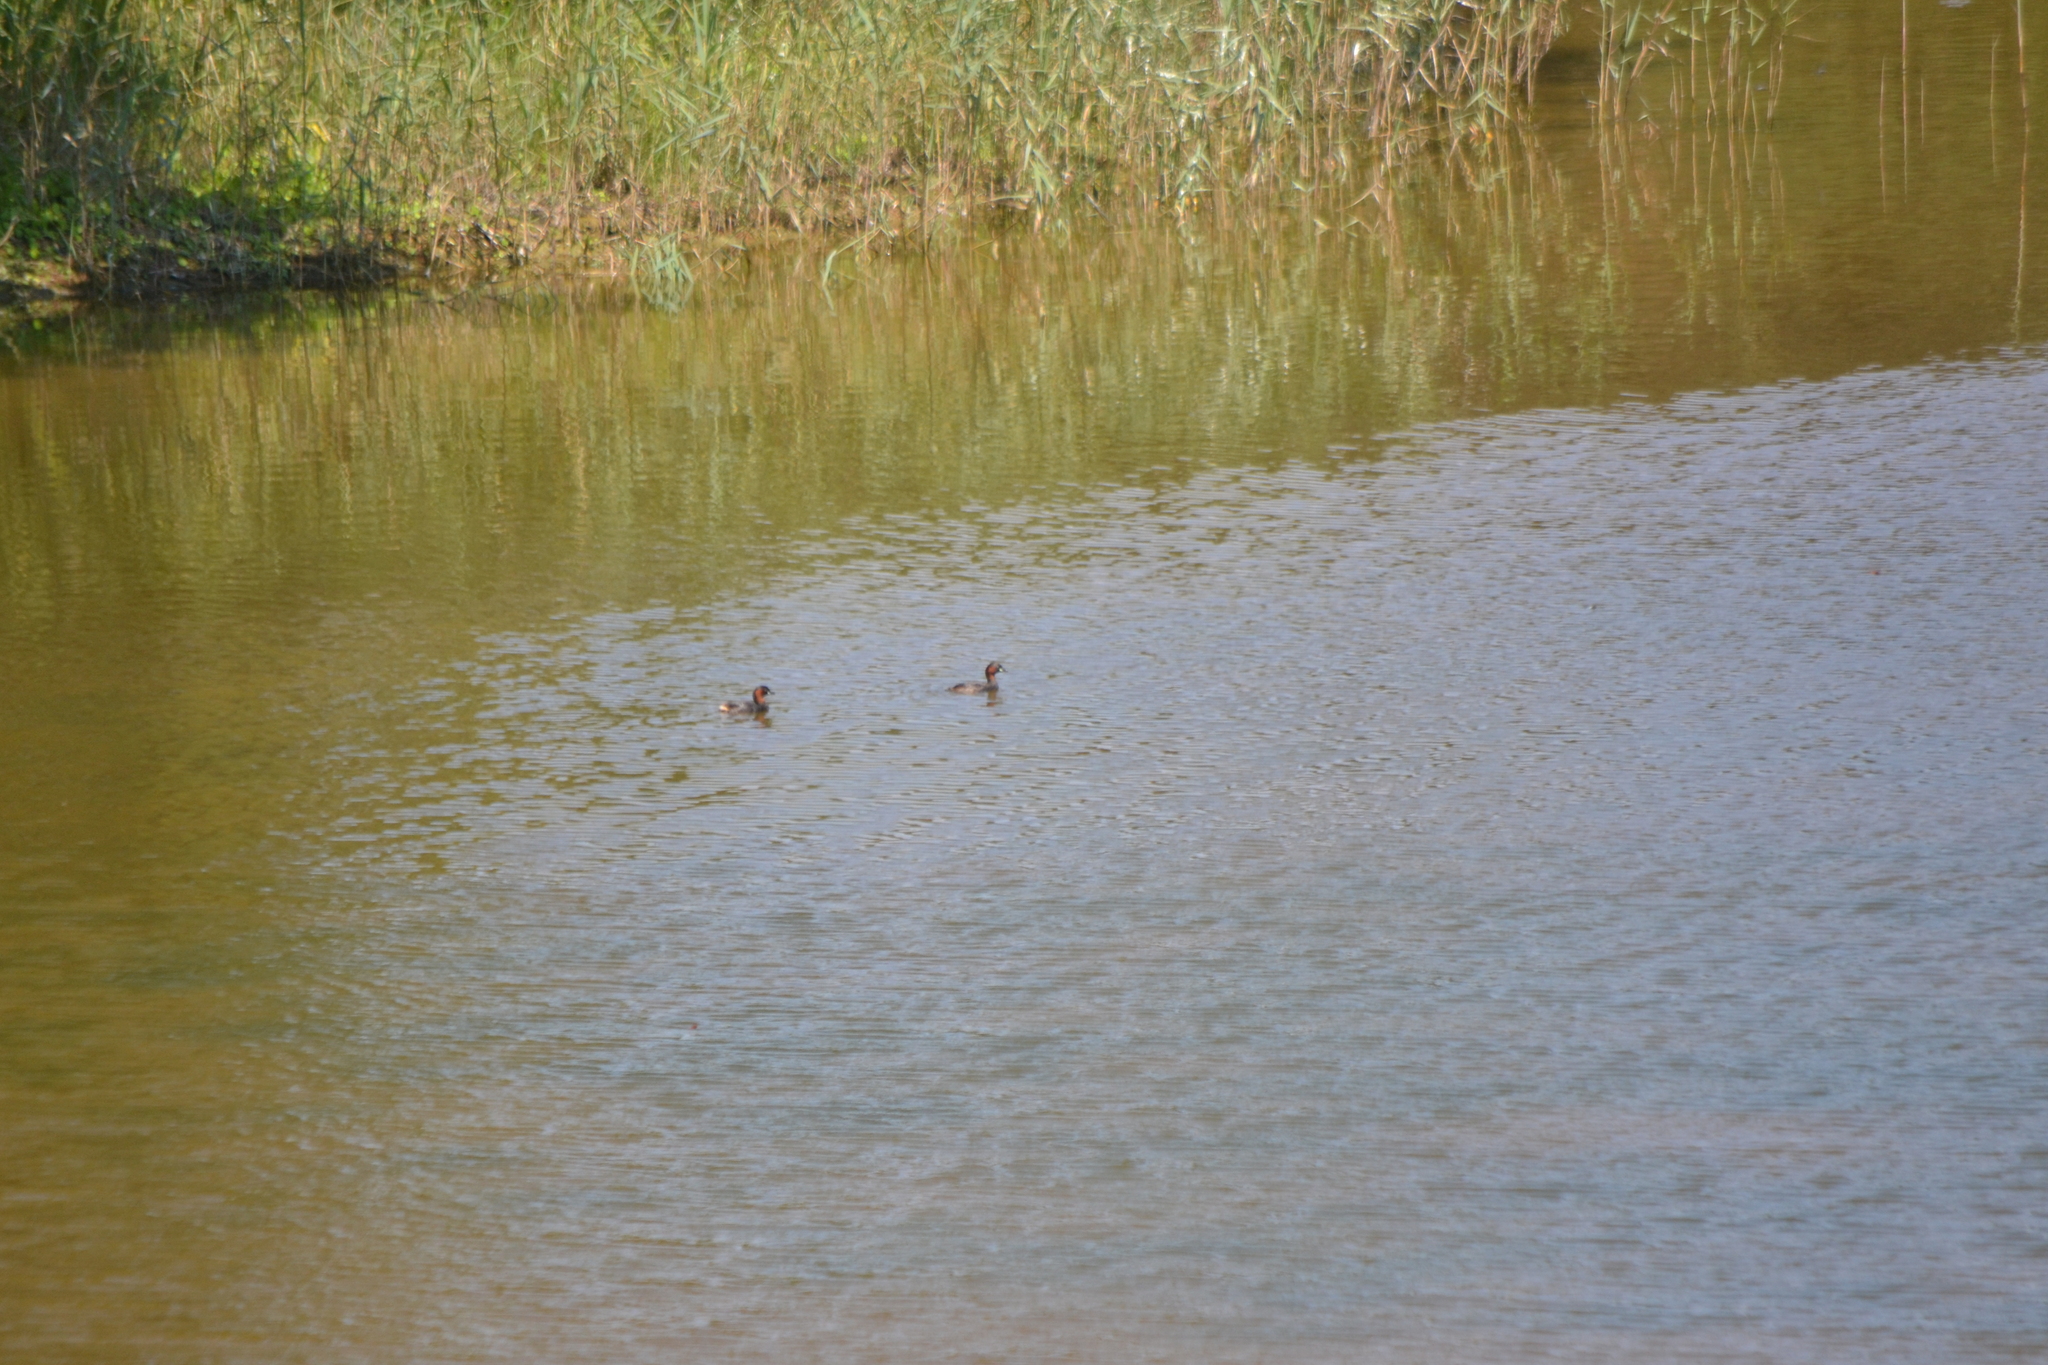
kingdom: Animalia
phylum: Chordata
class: Aves
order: Podicipediformes
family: Podicipedidae
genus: Tachybaptus
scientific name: Tachybaptus ruficollis
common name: Little grebe
